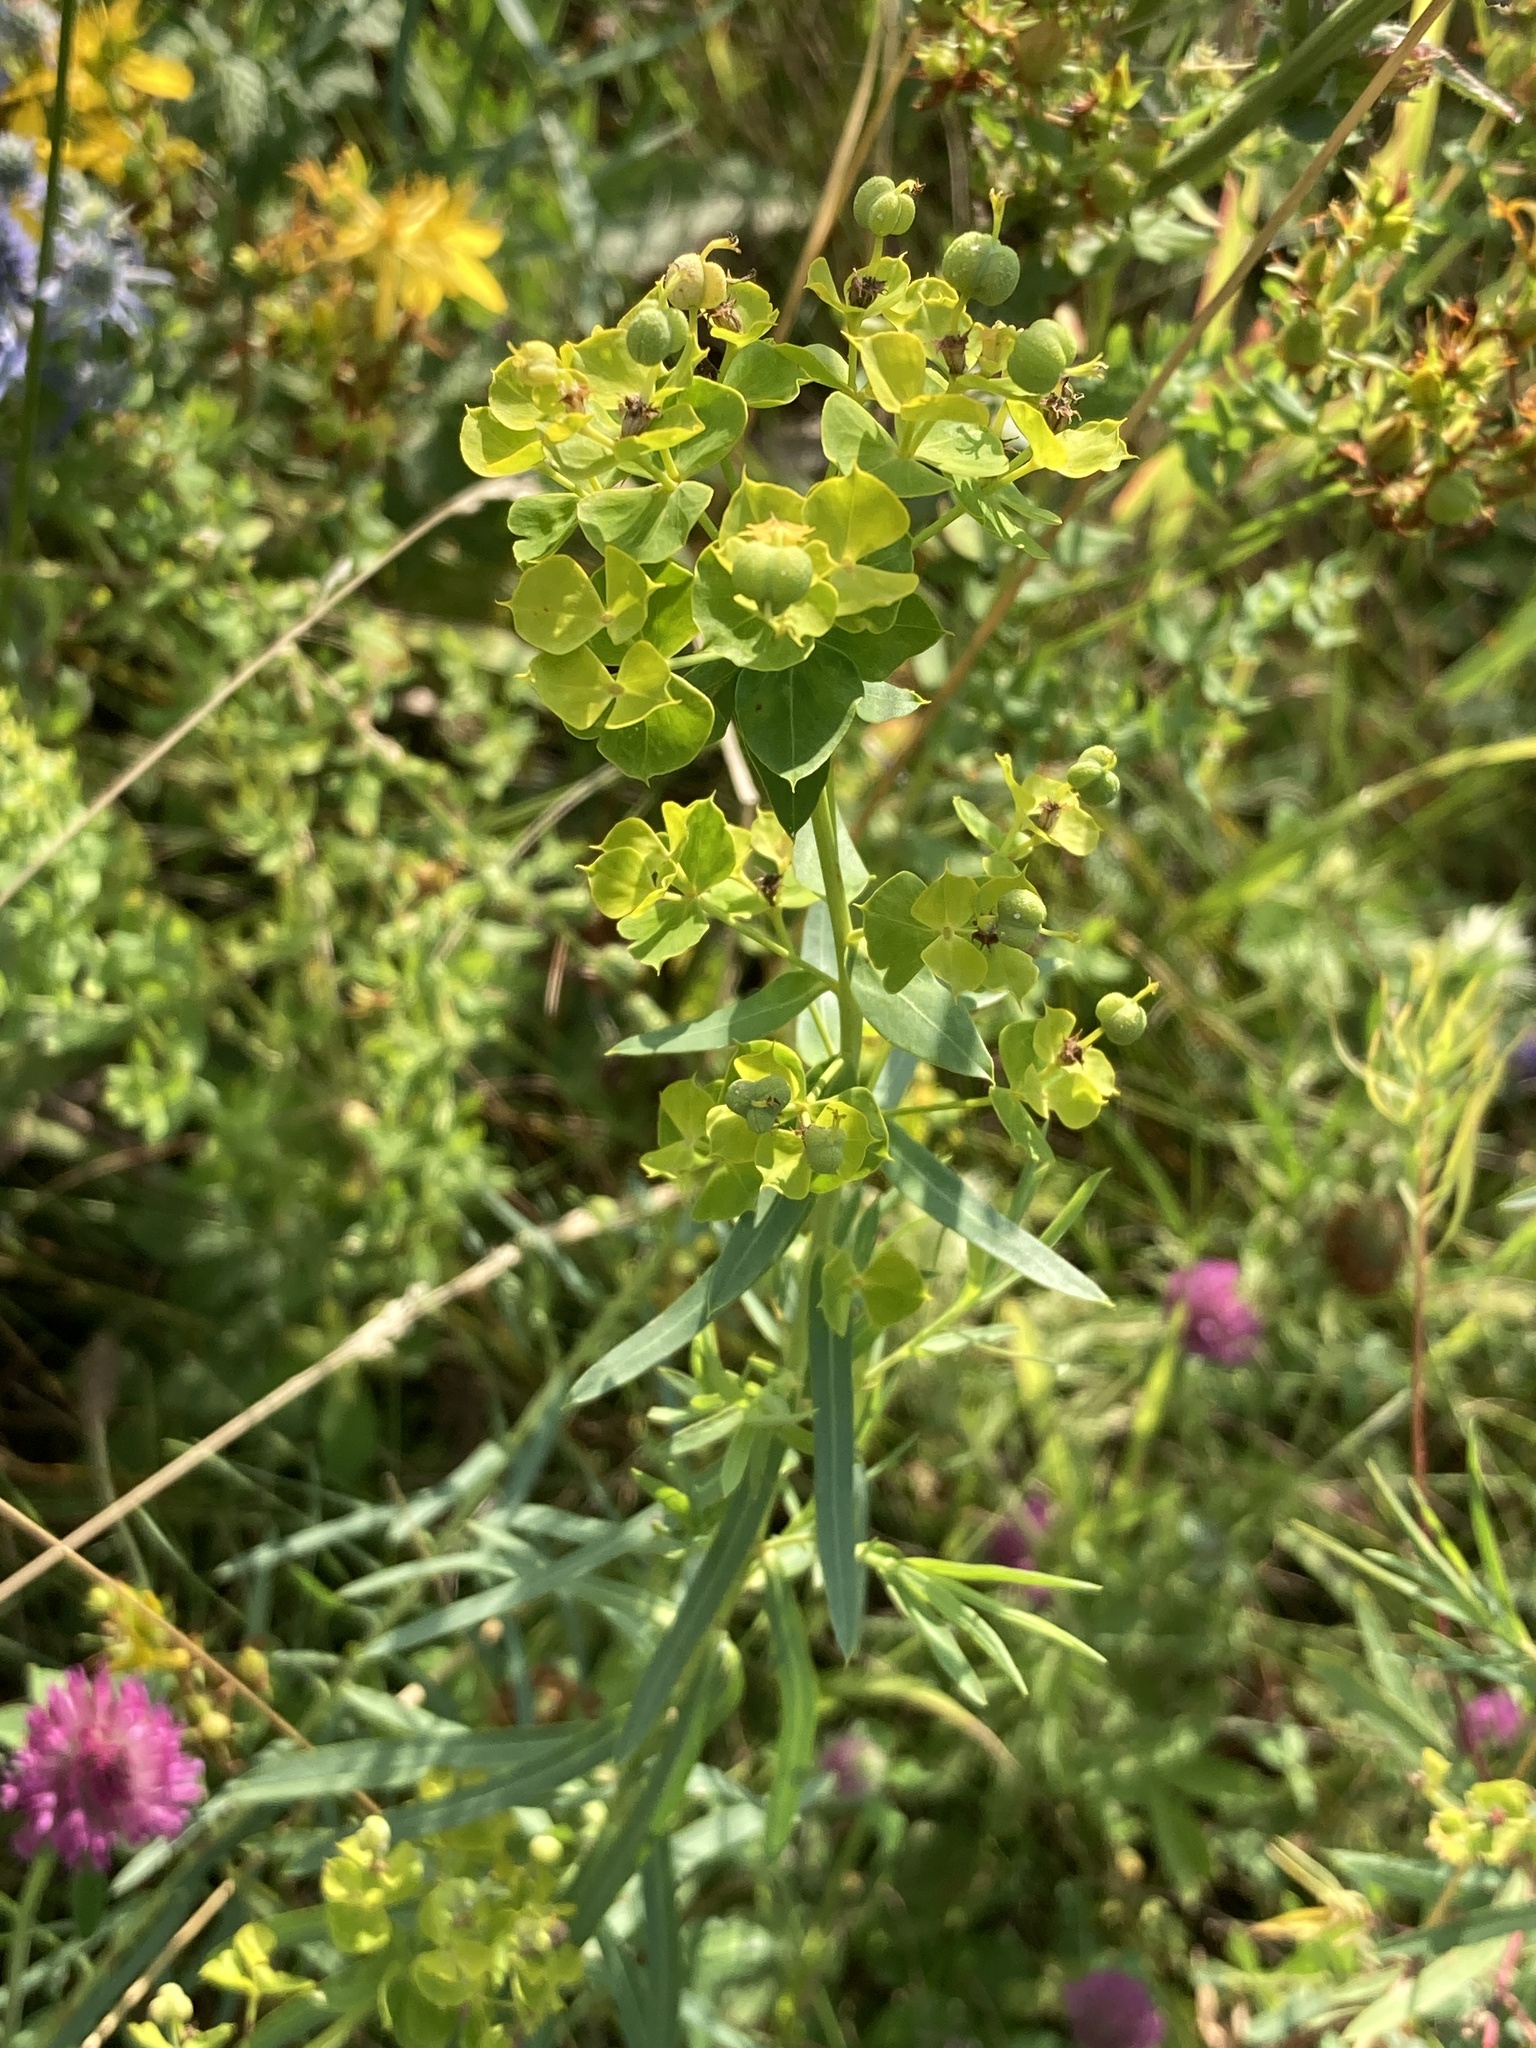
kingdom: Plantae
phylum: Tracheophyta
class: Magnoliopsida
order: Malpighiales
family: Euphorbiaceae
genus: Euphorbia
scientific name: Euphorbia virgata
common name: Leafy spurge
